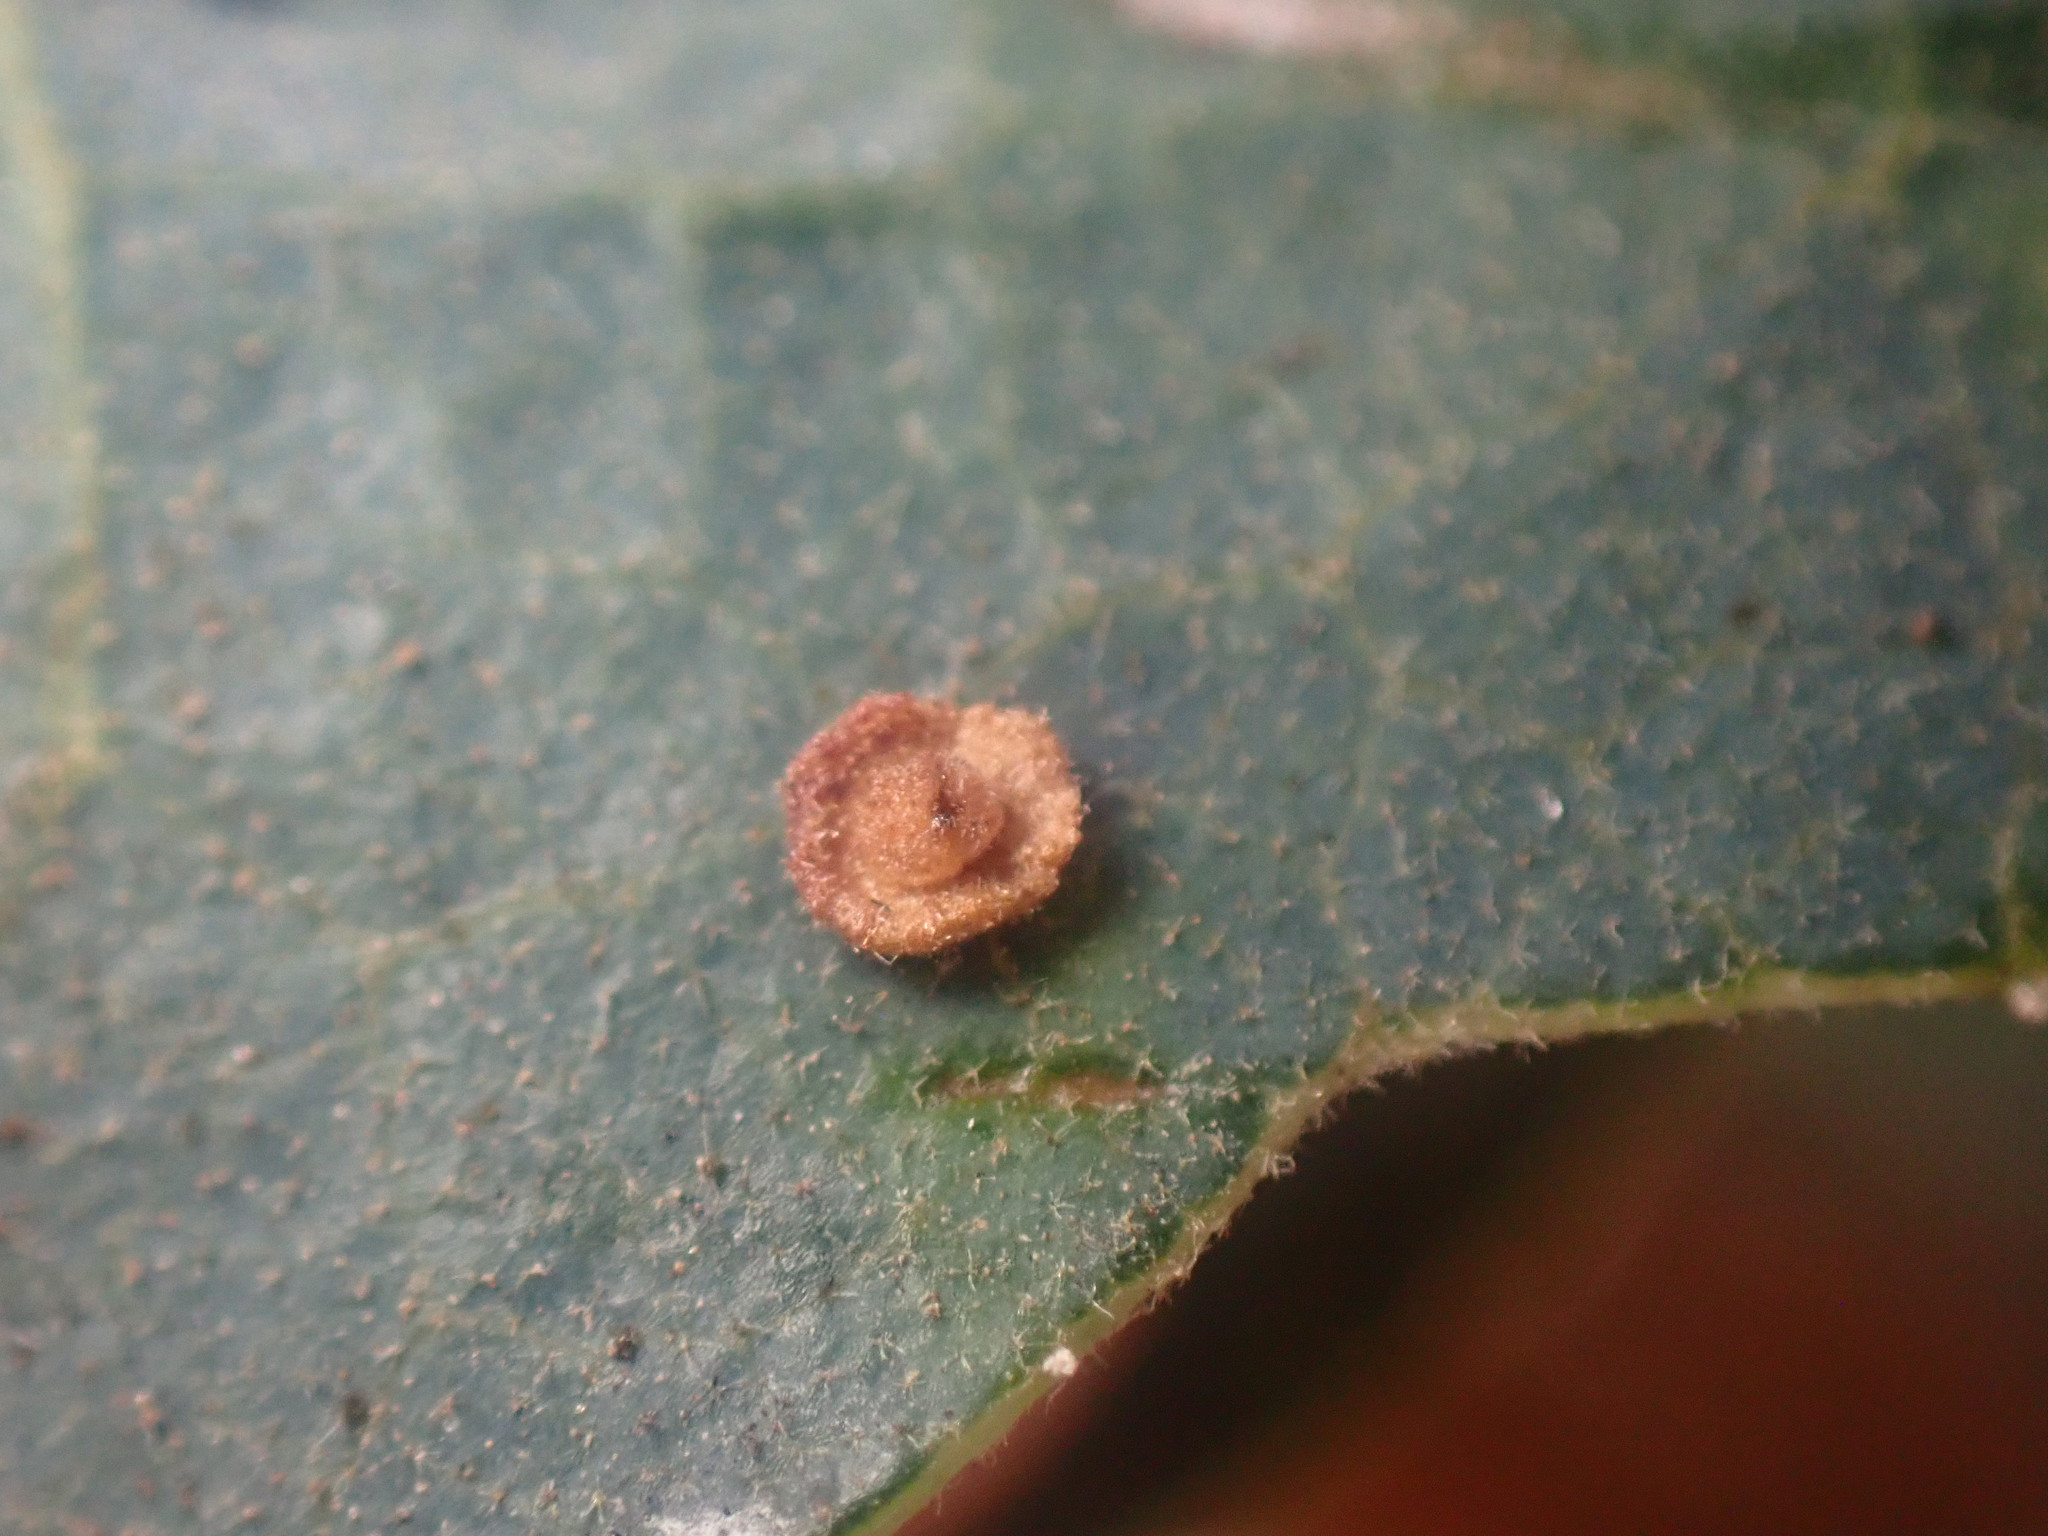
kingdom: Animalia
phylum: Arthropoda
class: Insecta
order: Hymenoptera
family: Cynipidae
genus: Andricus
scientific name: Andricus
